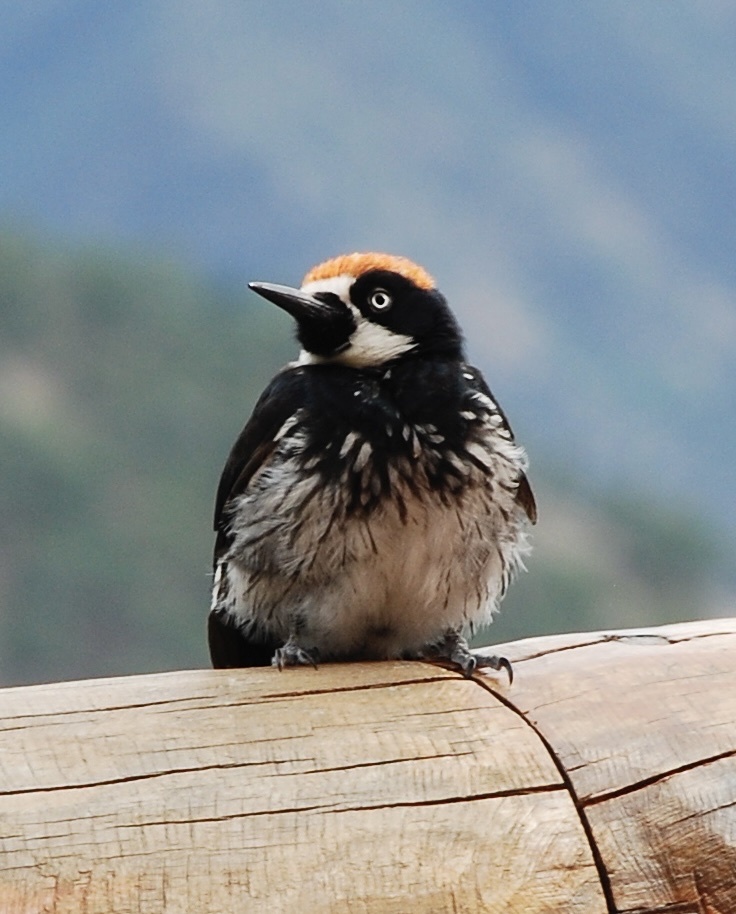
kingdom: Animalia
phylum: Chordata
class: Aves
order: Piciformes
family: Picidae
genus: Melanerpes
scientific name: Melanerpes formicivorus
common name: Acorn woodpecker
